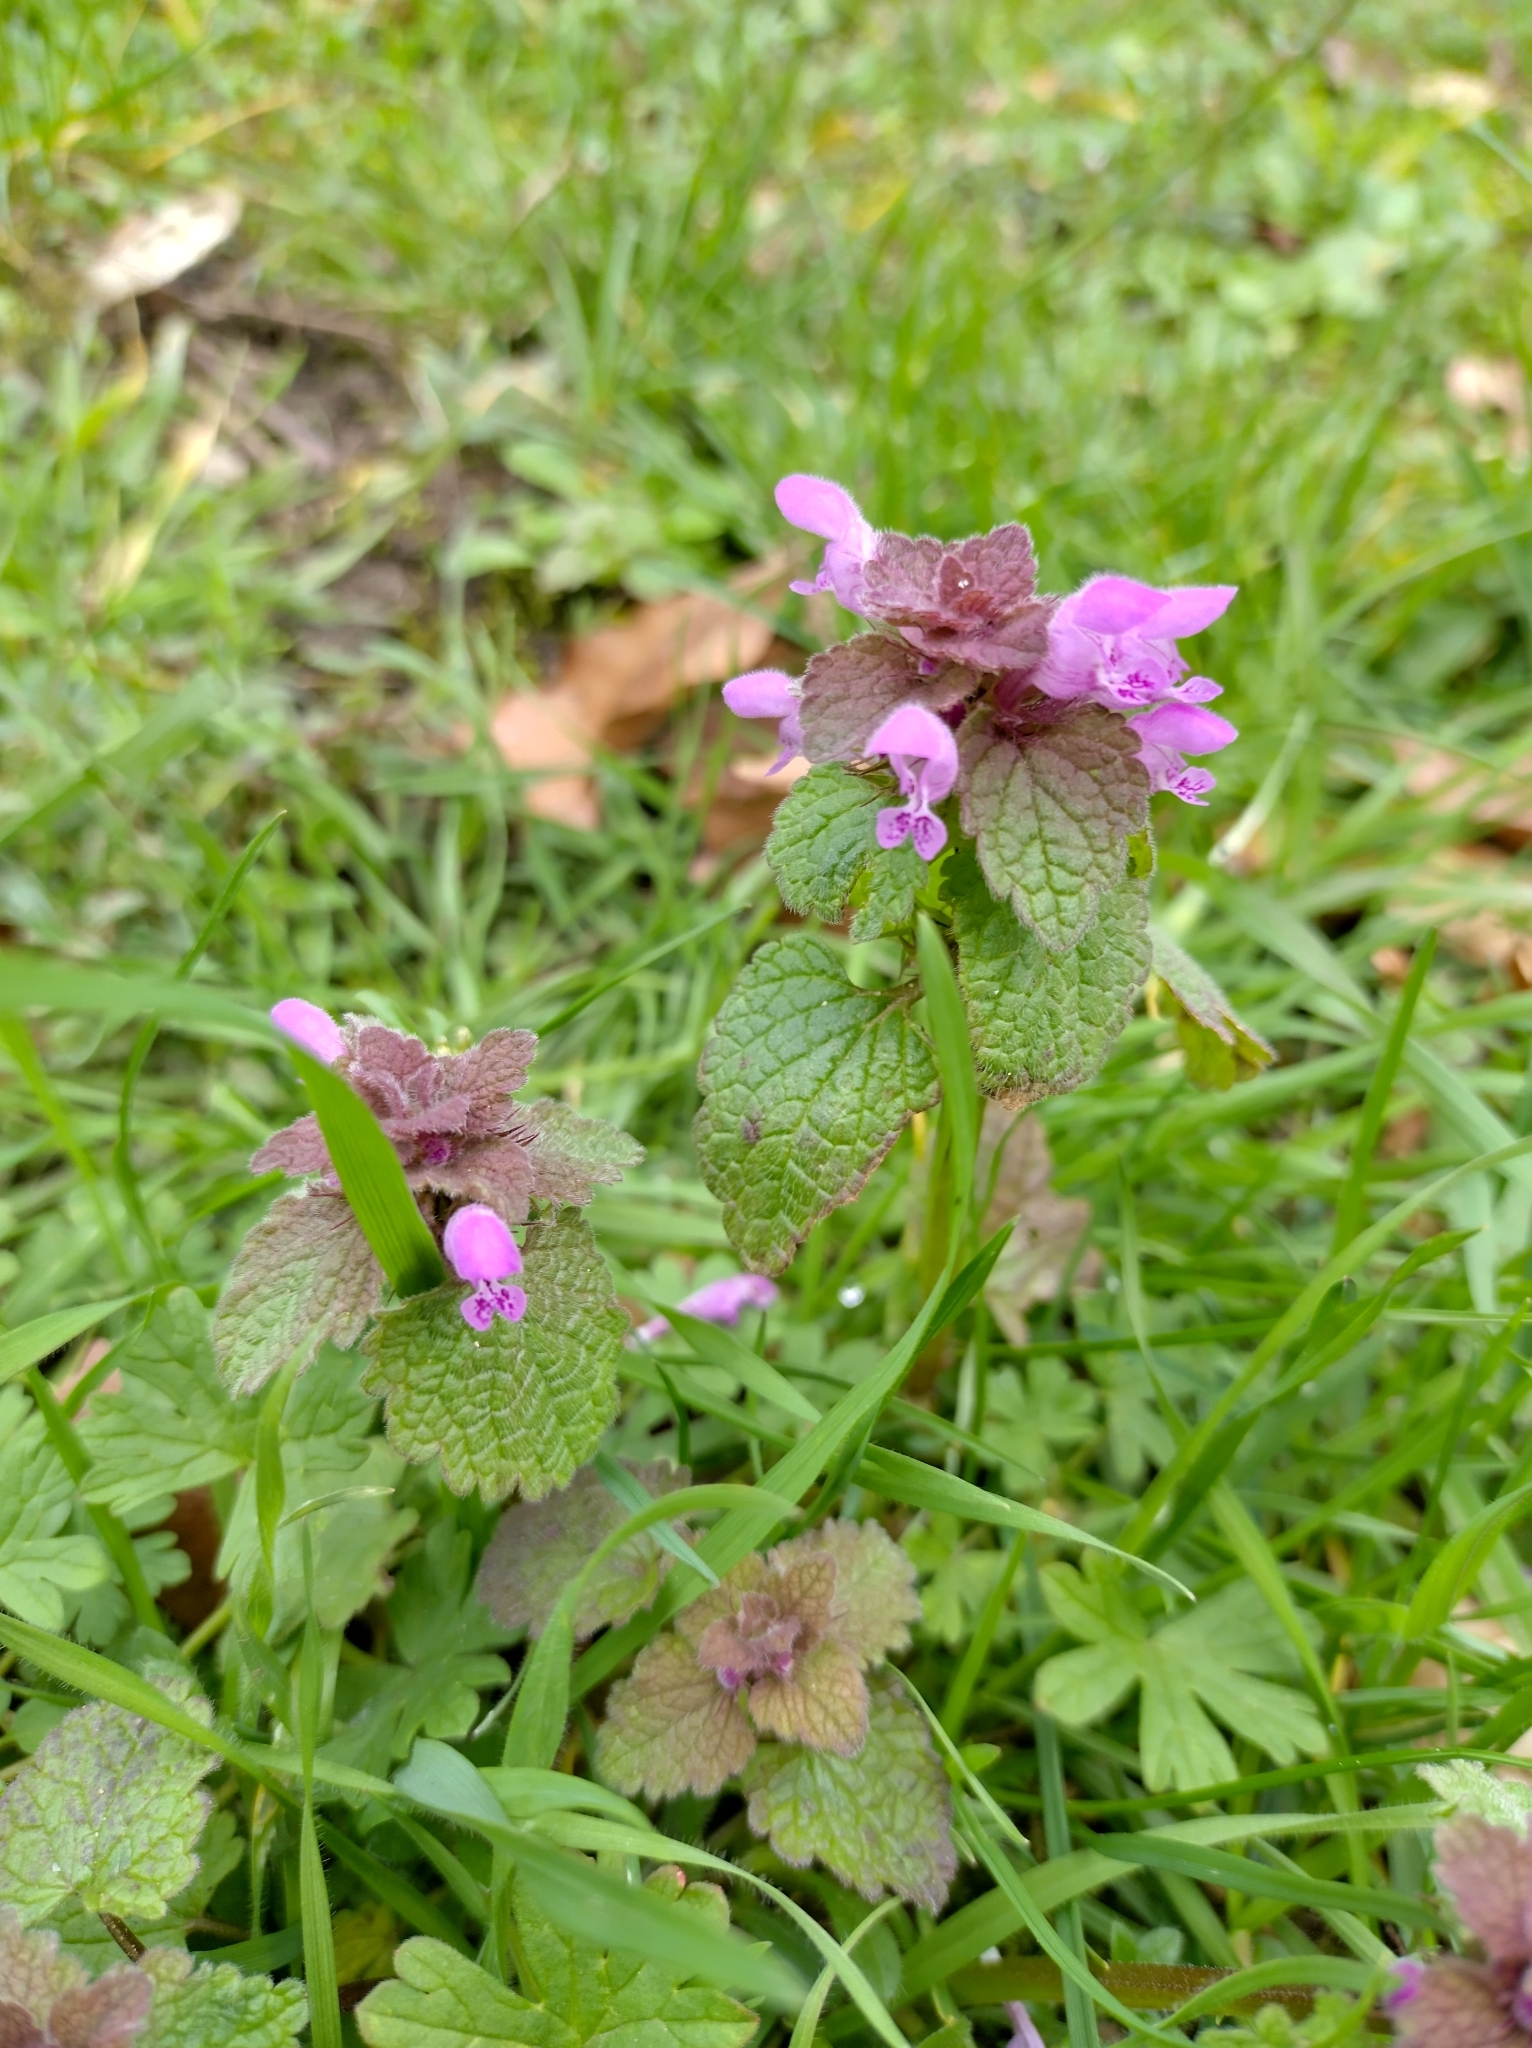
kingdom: Plantae
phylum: Tracheophyta
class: Magnoliopsida
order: Lamiales
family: Lamiaceae
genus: Lamium
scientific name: Lamium purpureum
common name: Red dead-nettle
